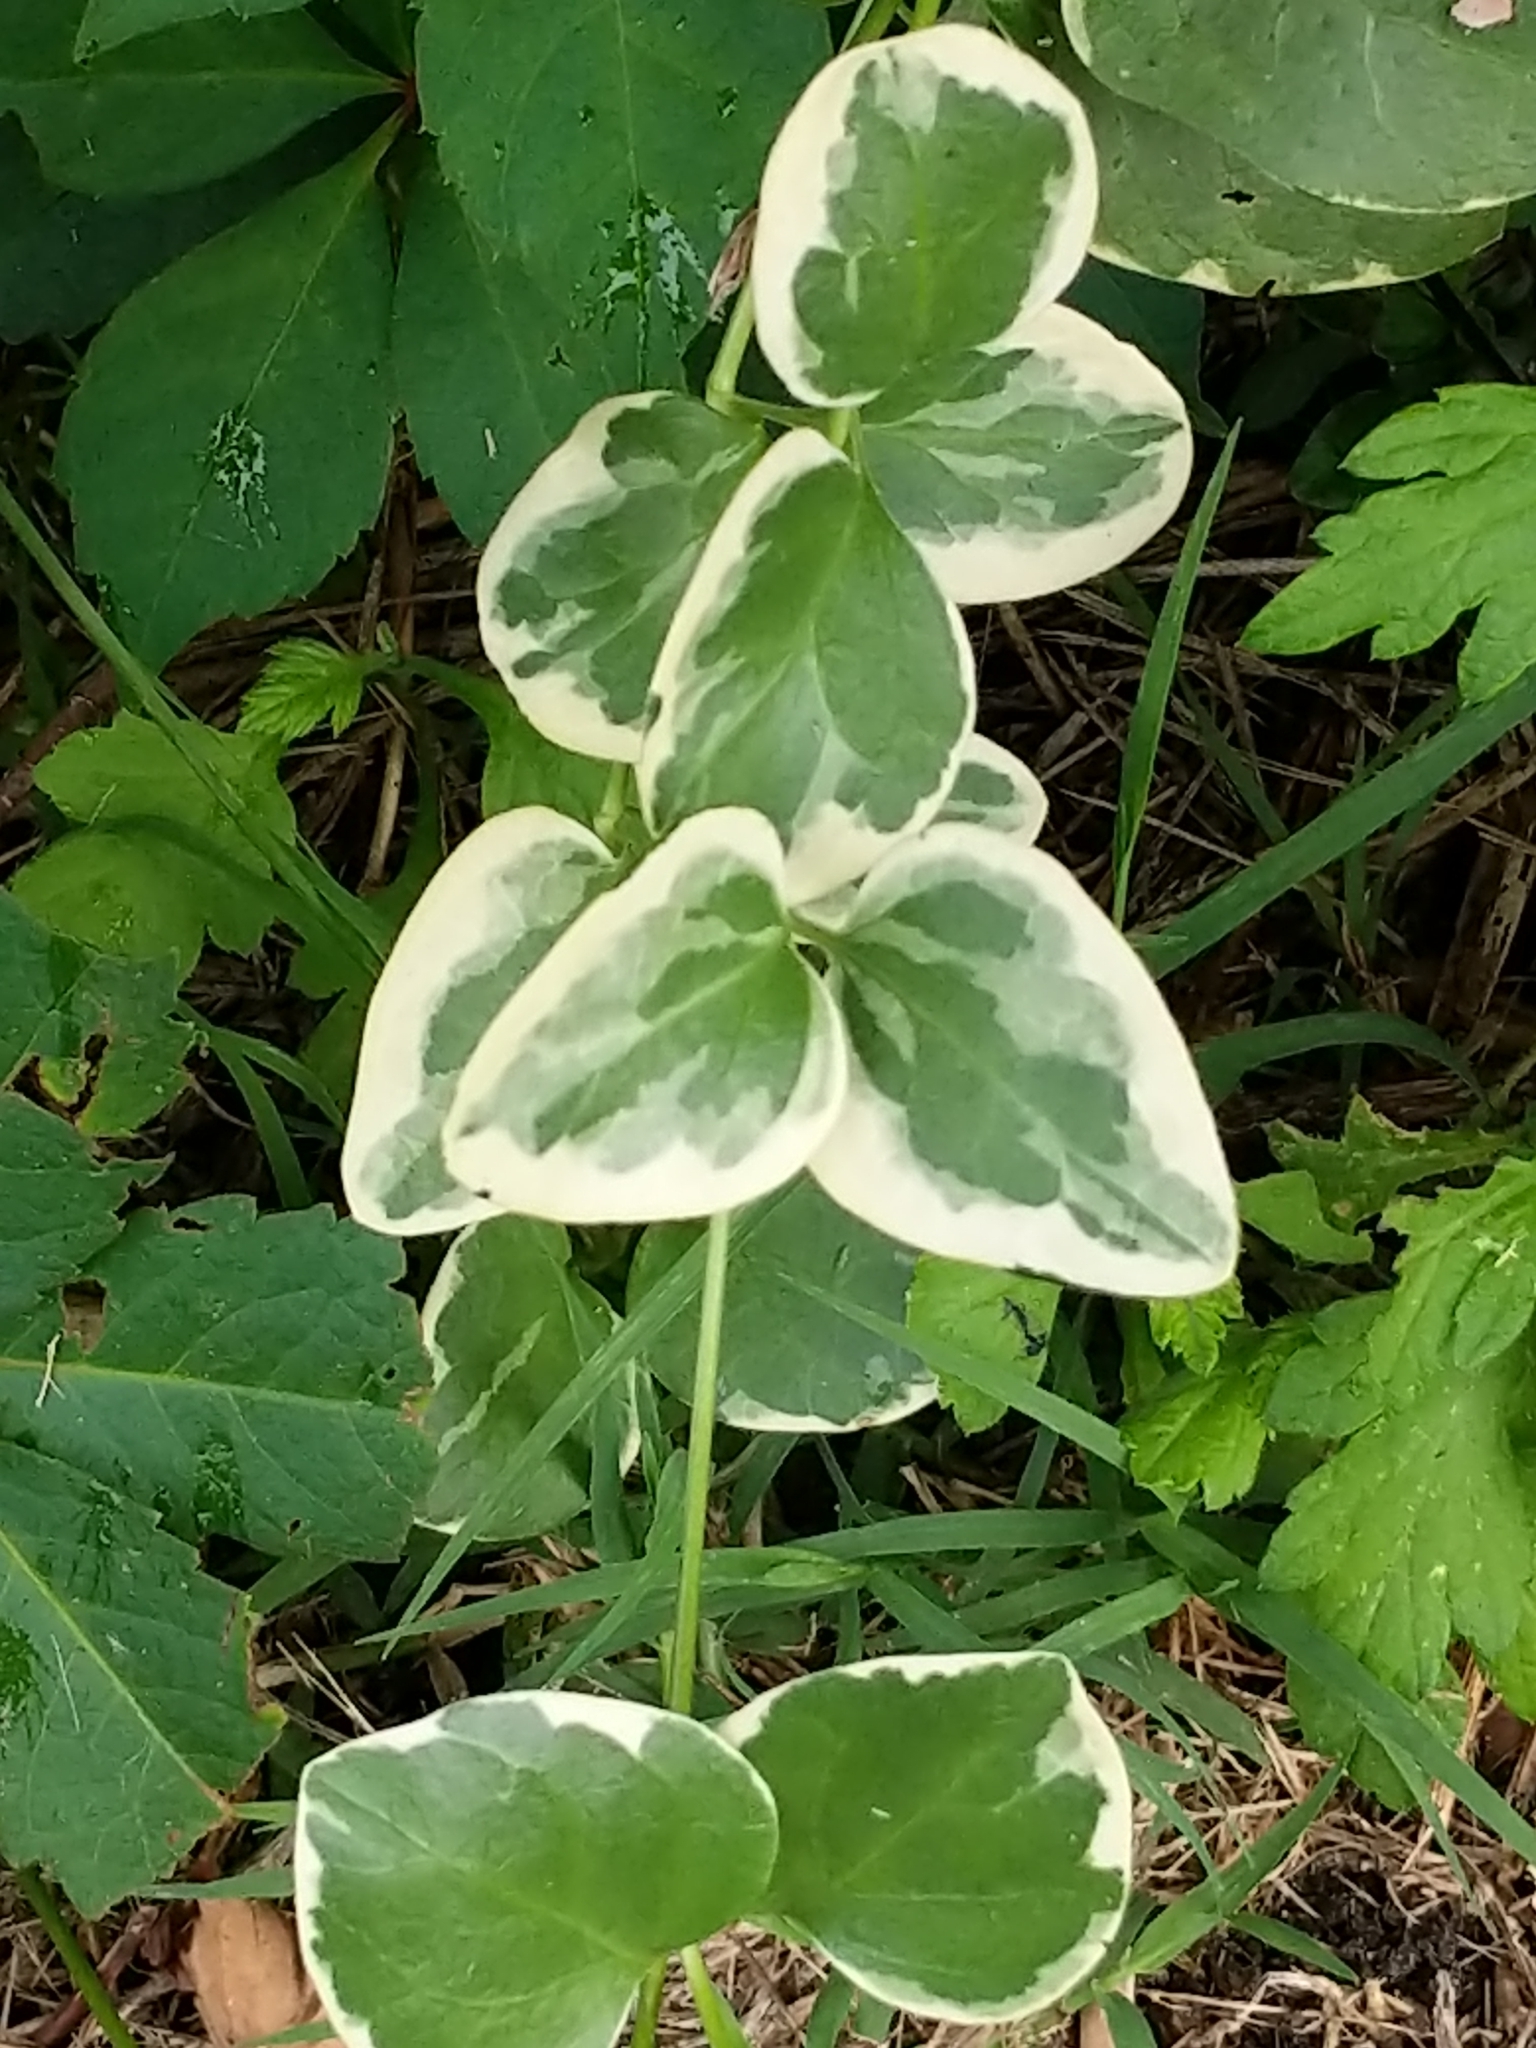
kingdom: Plantae
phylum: Tracheophyta
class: Magnoliopsida
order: Gentianales
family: Apocynaceae
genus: Vinca
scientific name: Vinca major
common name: Greater periwinkle
